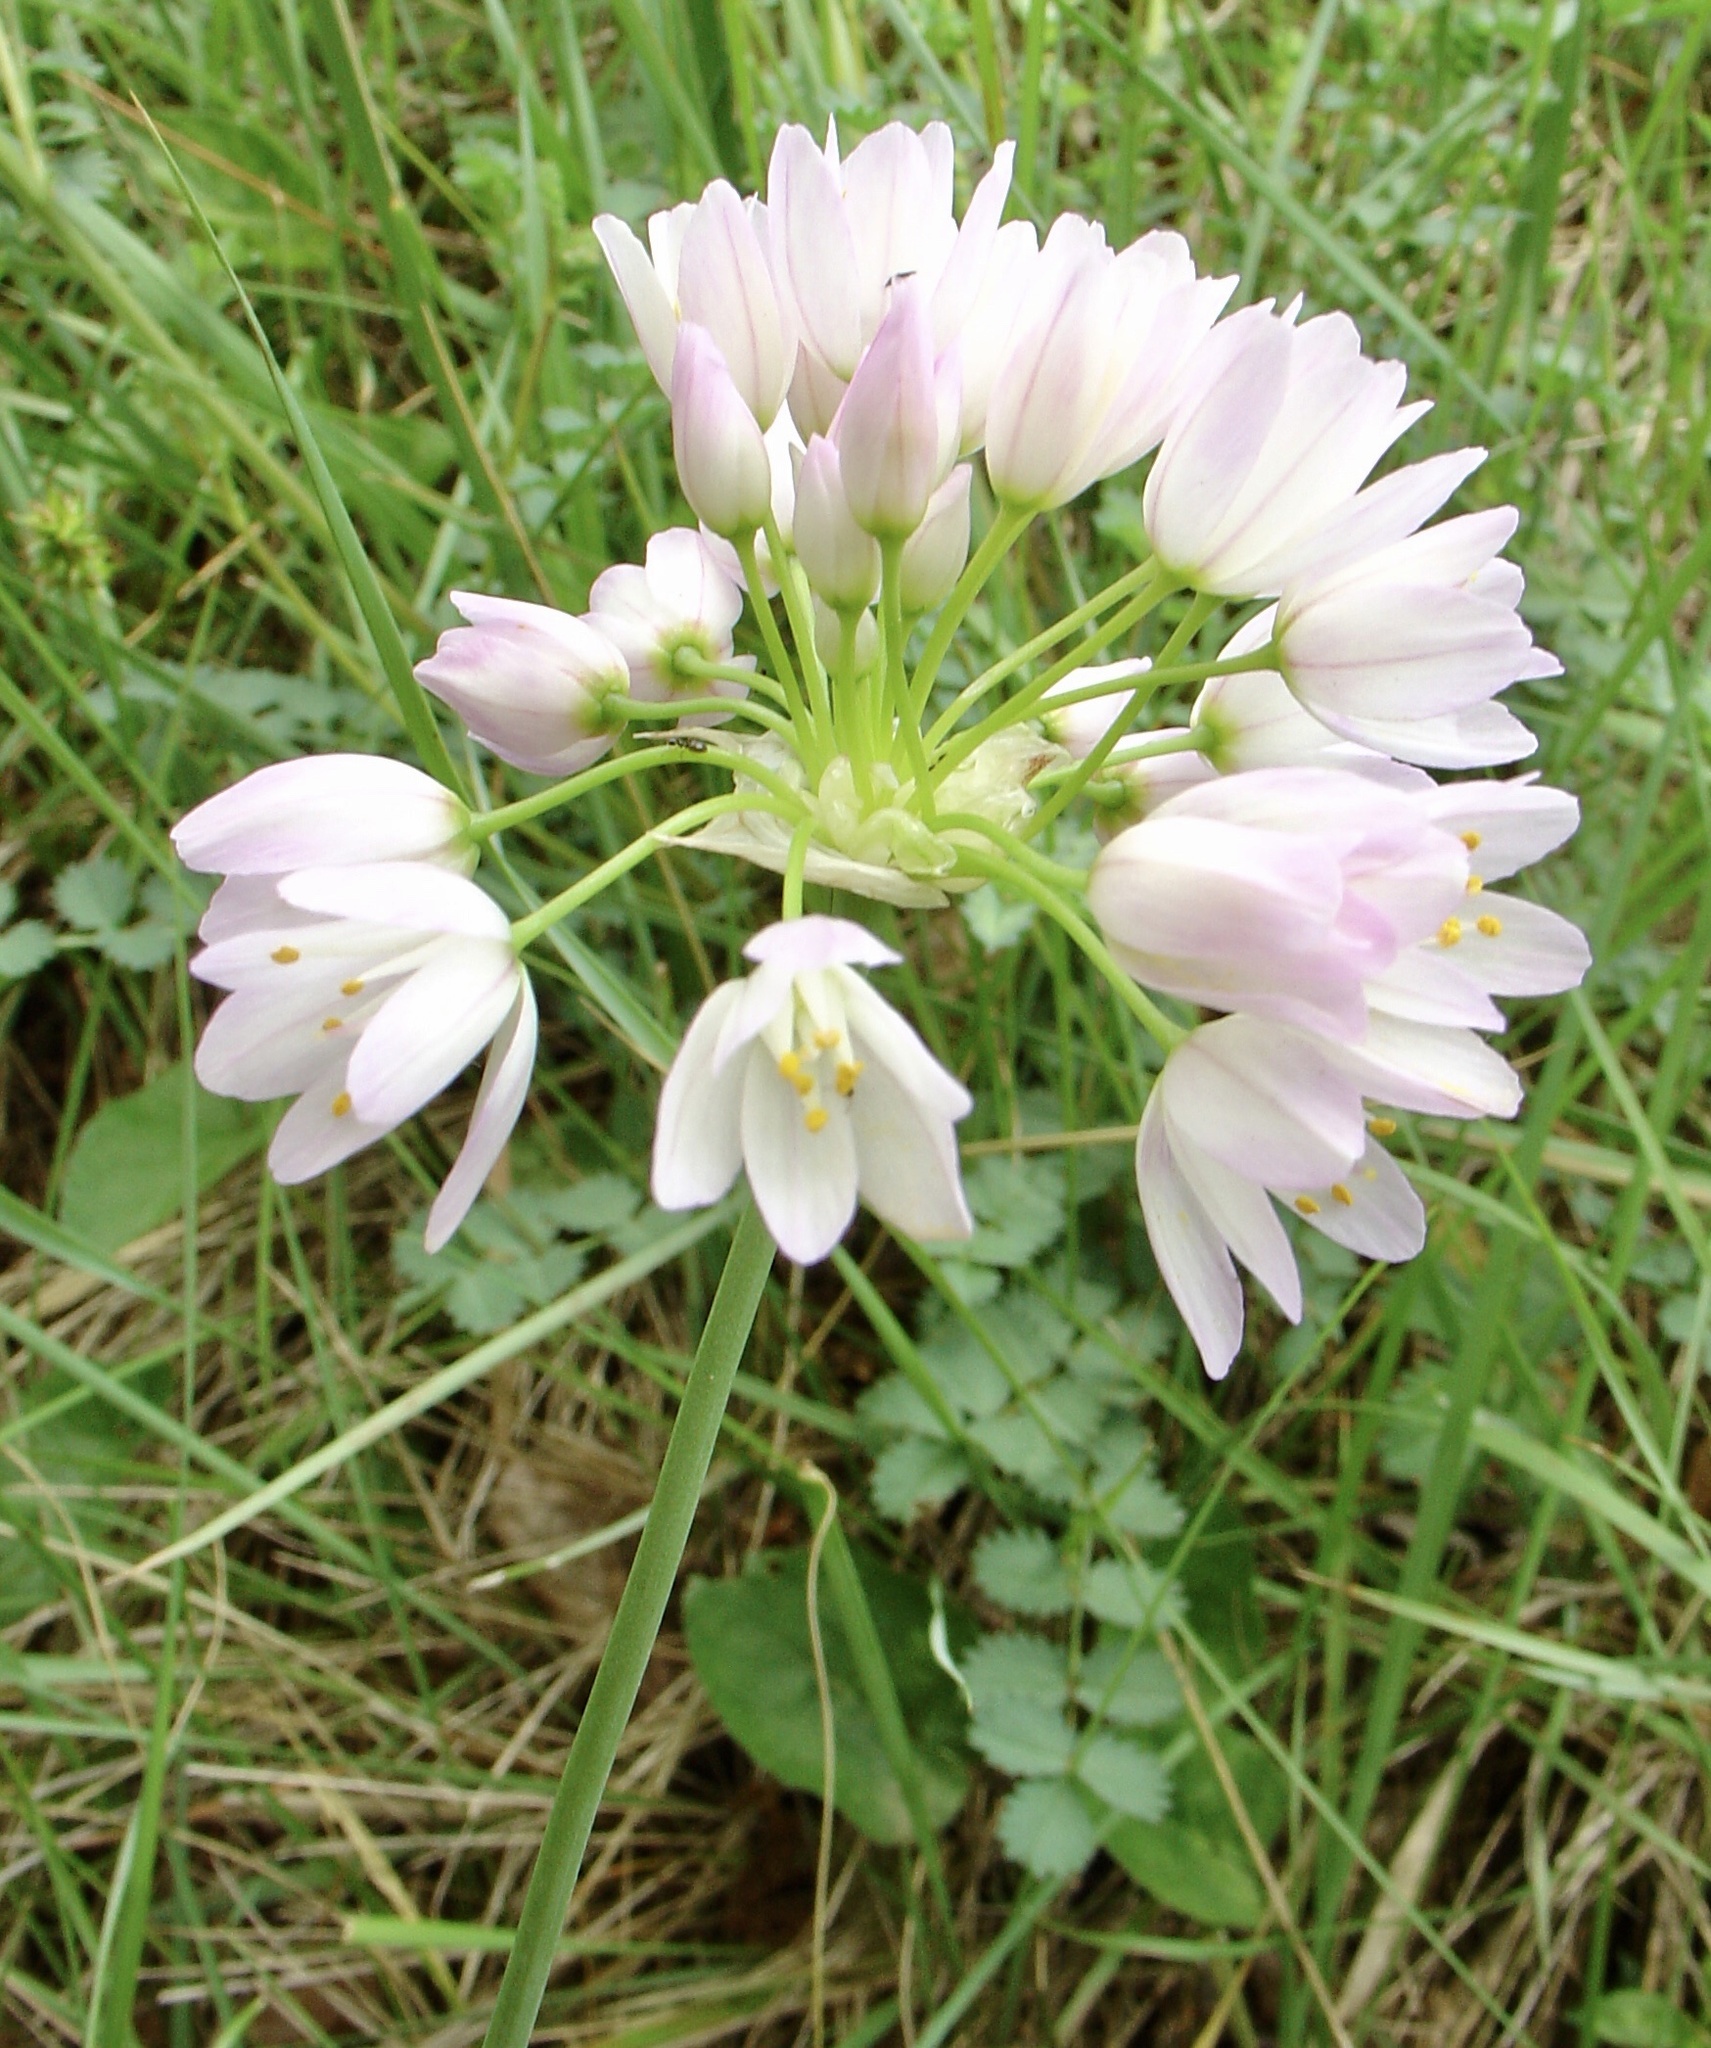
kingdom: Plantae
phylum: Tracheophyta
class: Liliopsida
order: Asparagales
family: Amaryllidaceae
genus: Allium
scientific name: Allium roseum
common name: Rosy garlic
